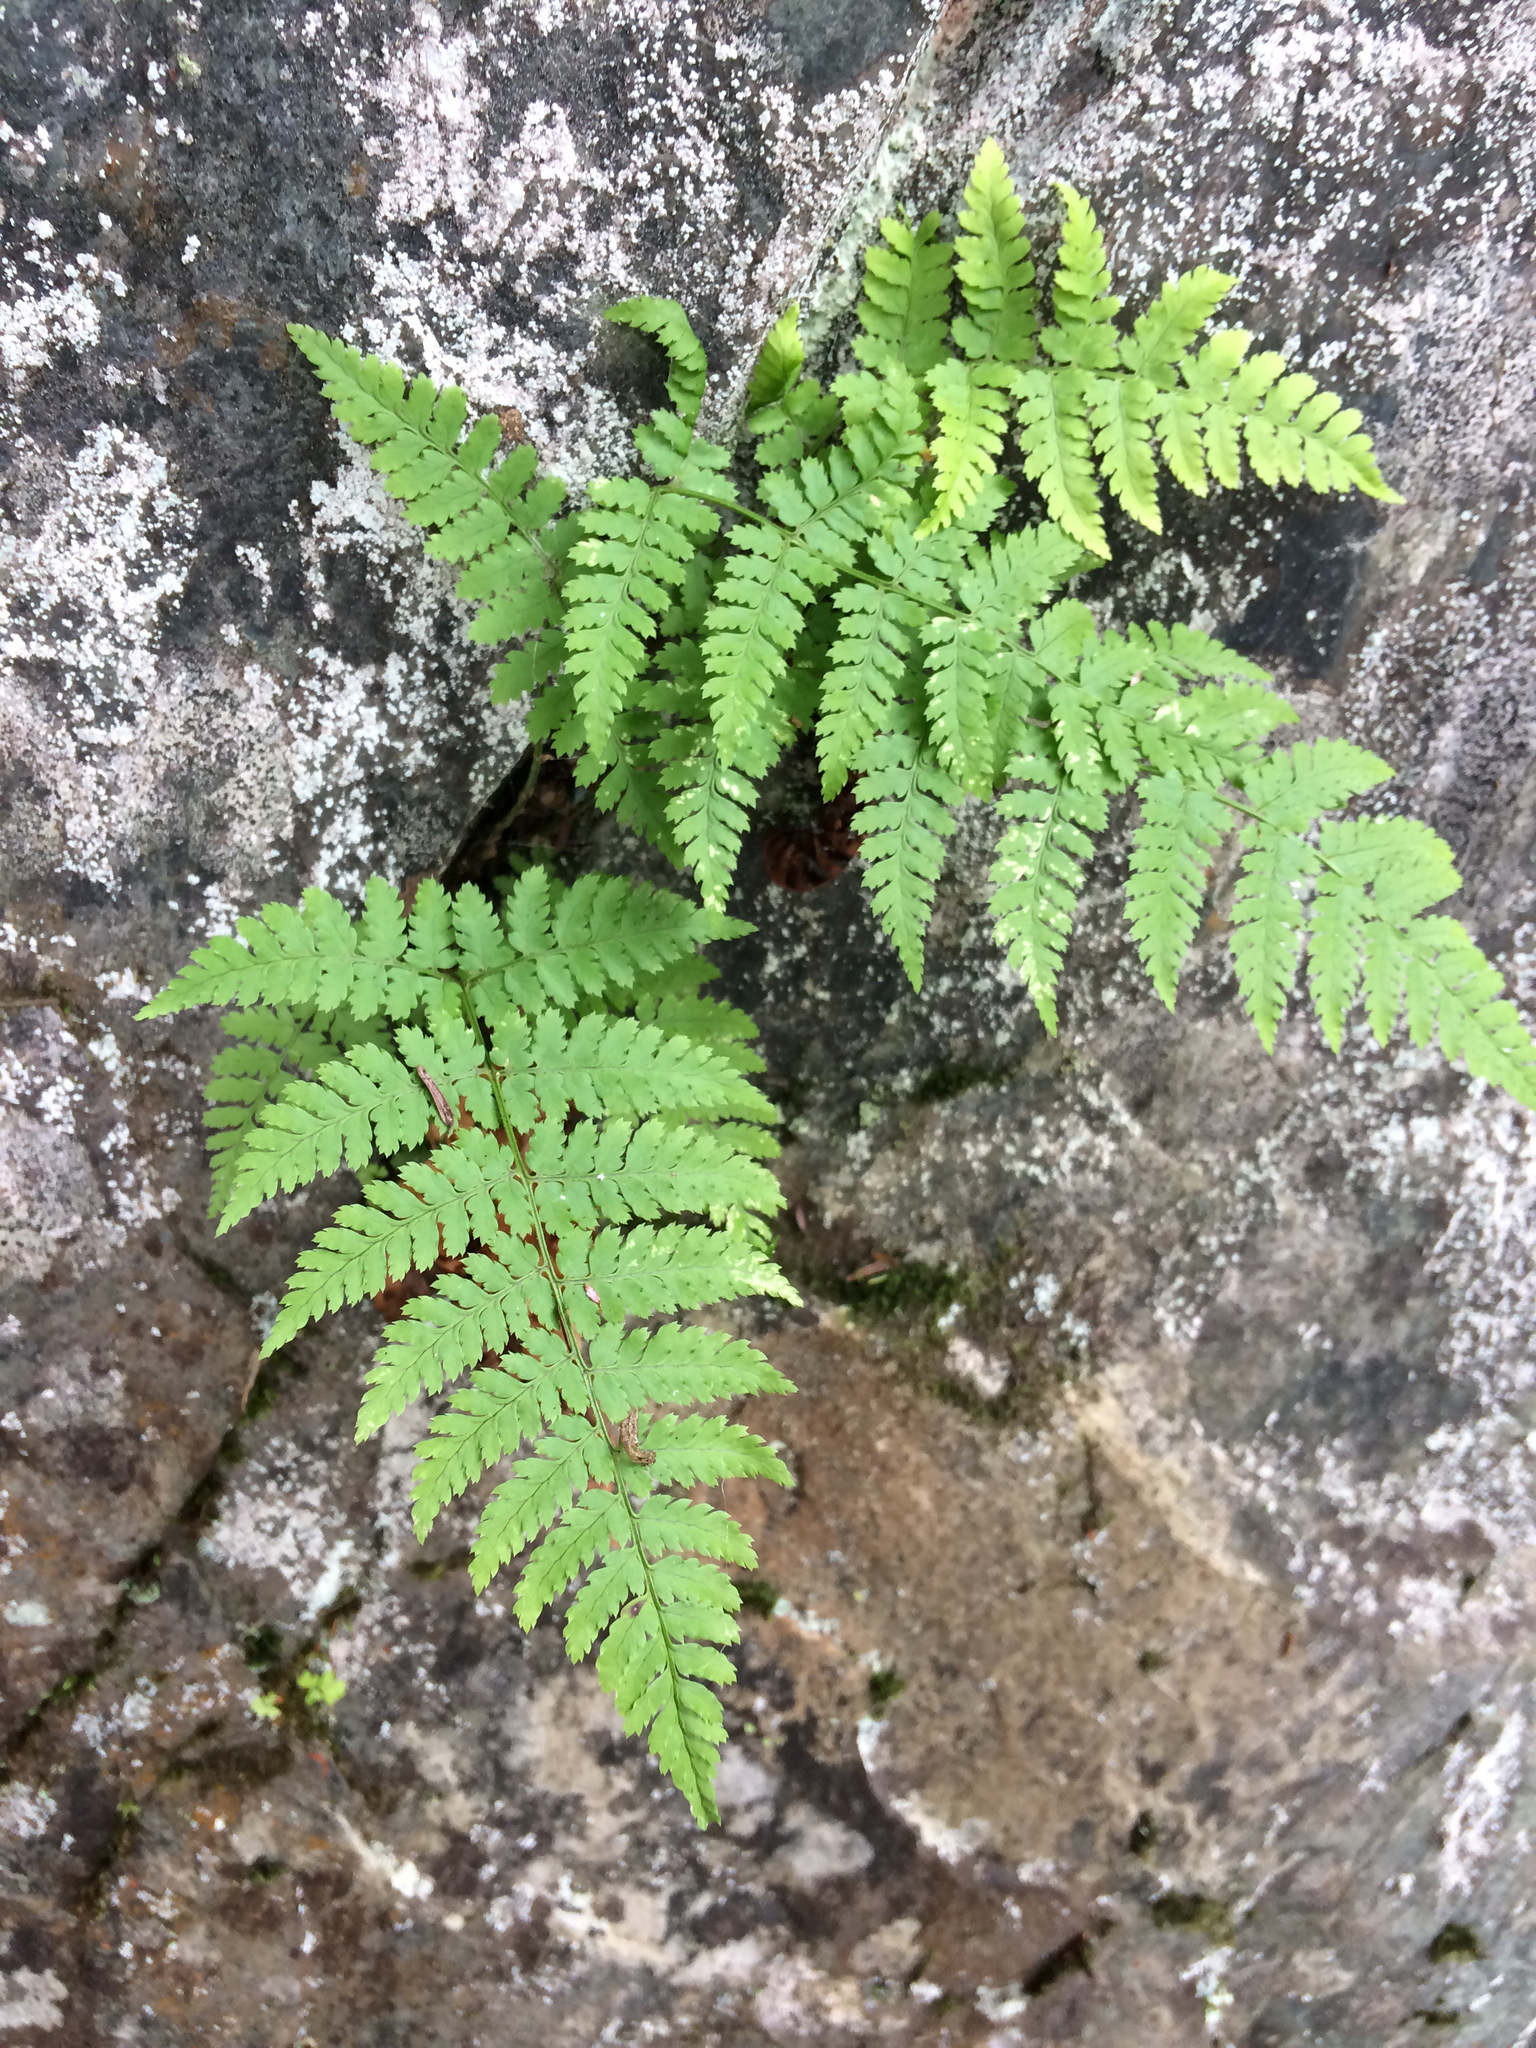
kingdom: Plantae
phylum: Tracheophyta
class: Polypodiopsida
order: Polypodiales
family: Dryopteridaceae
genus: Dryopteris
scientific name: Dryopteris intermedia
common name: Evergreen wood fern
